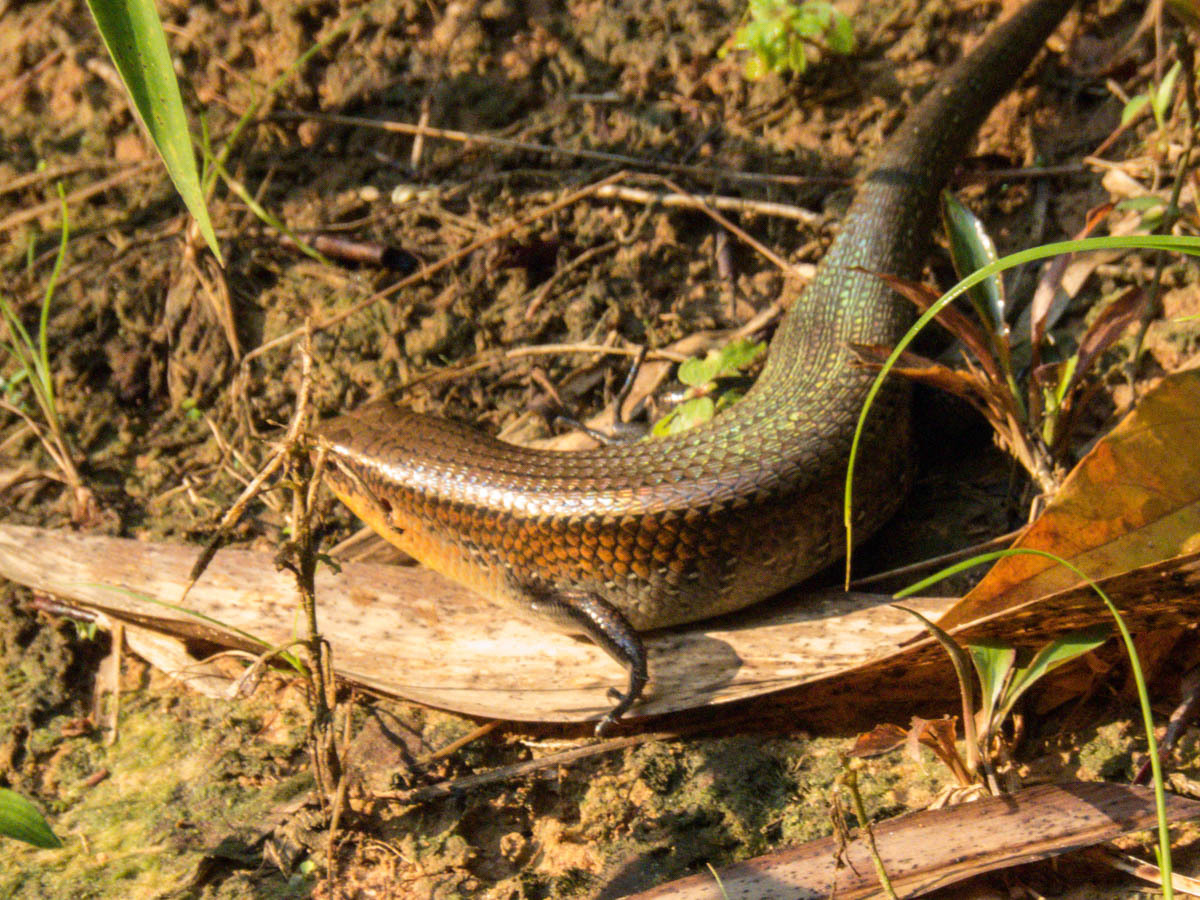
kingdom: Animalia
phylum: Chordata
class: Squamata
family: Scincidae
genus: Eutropis
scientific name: Eutropis multifasciata
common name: Common mabuya
